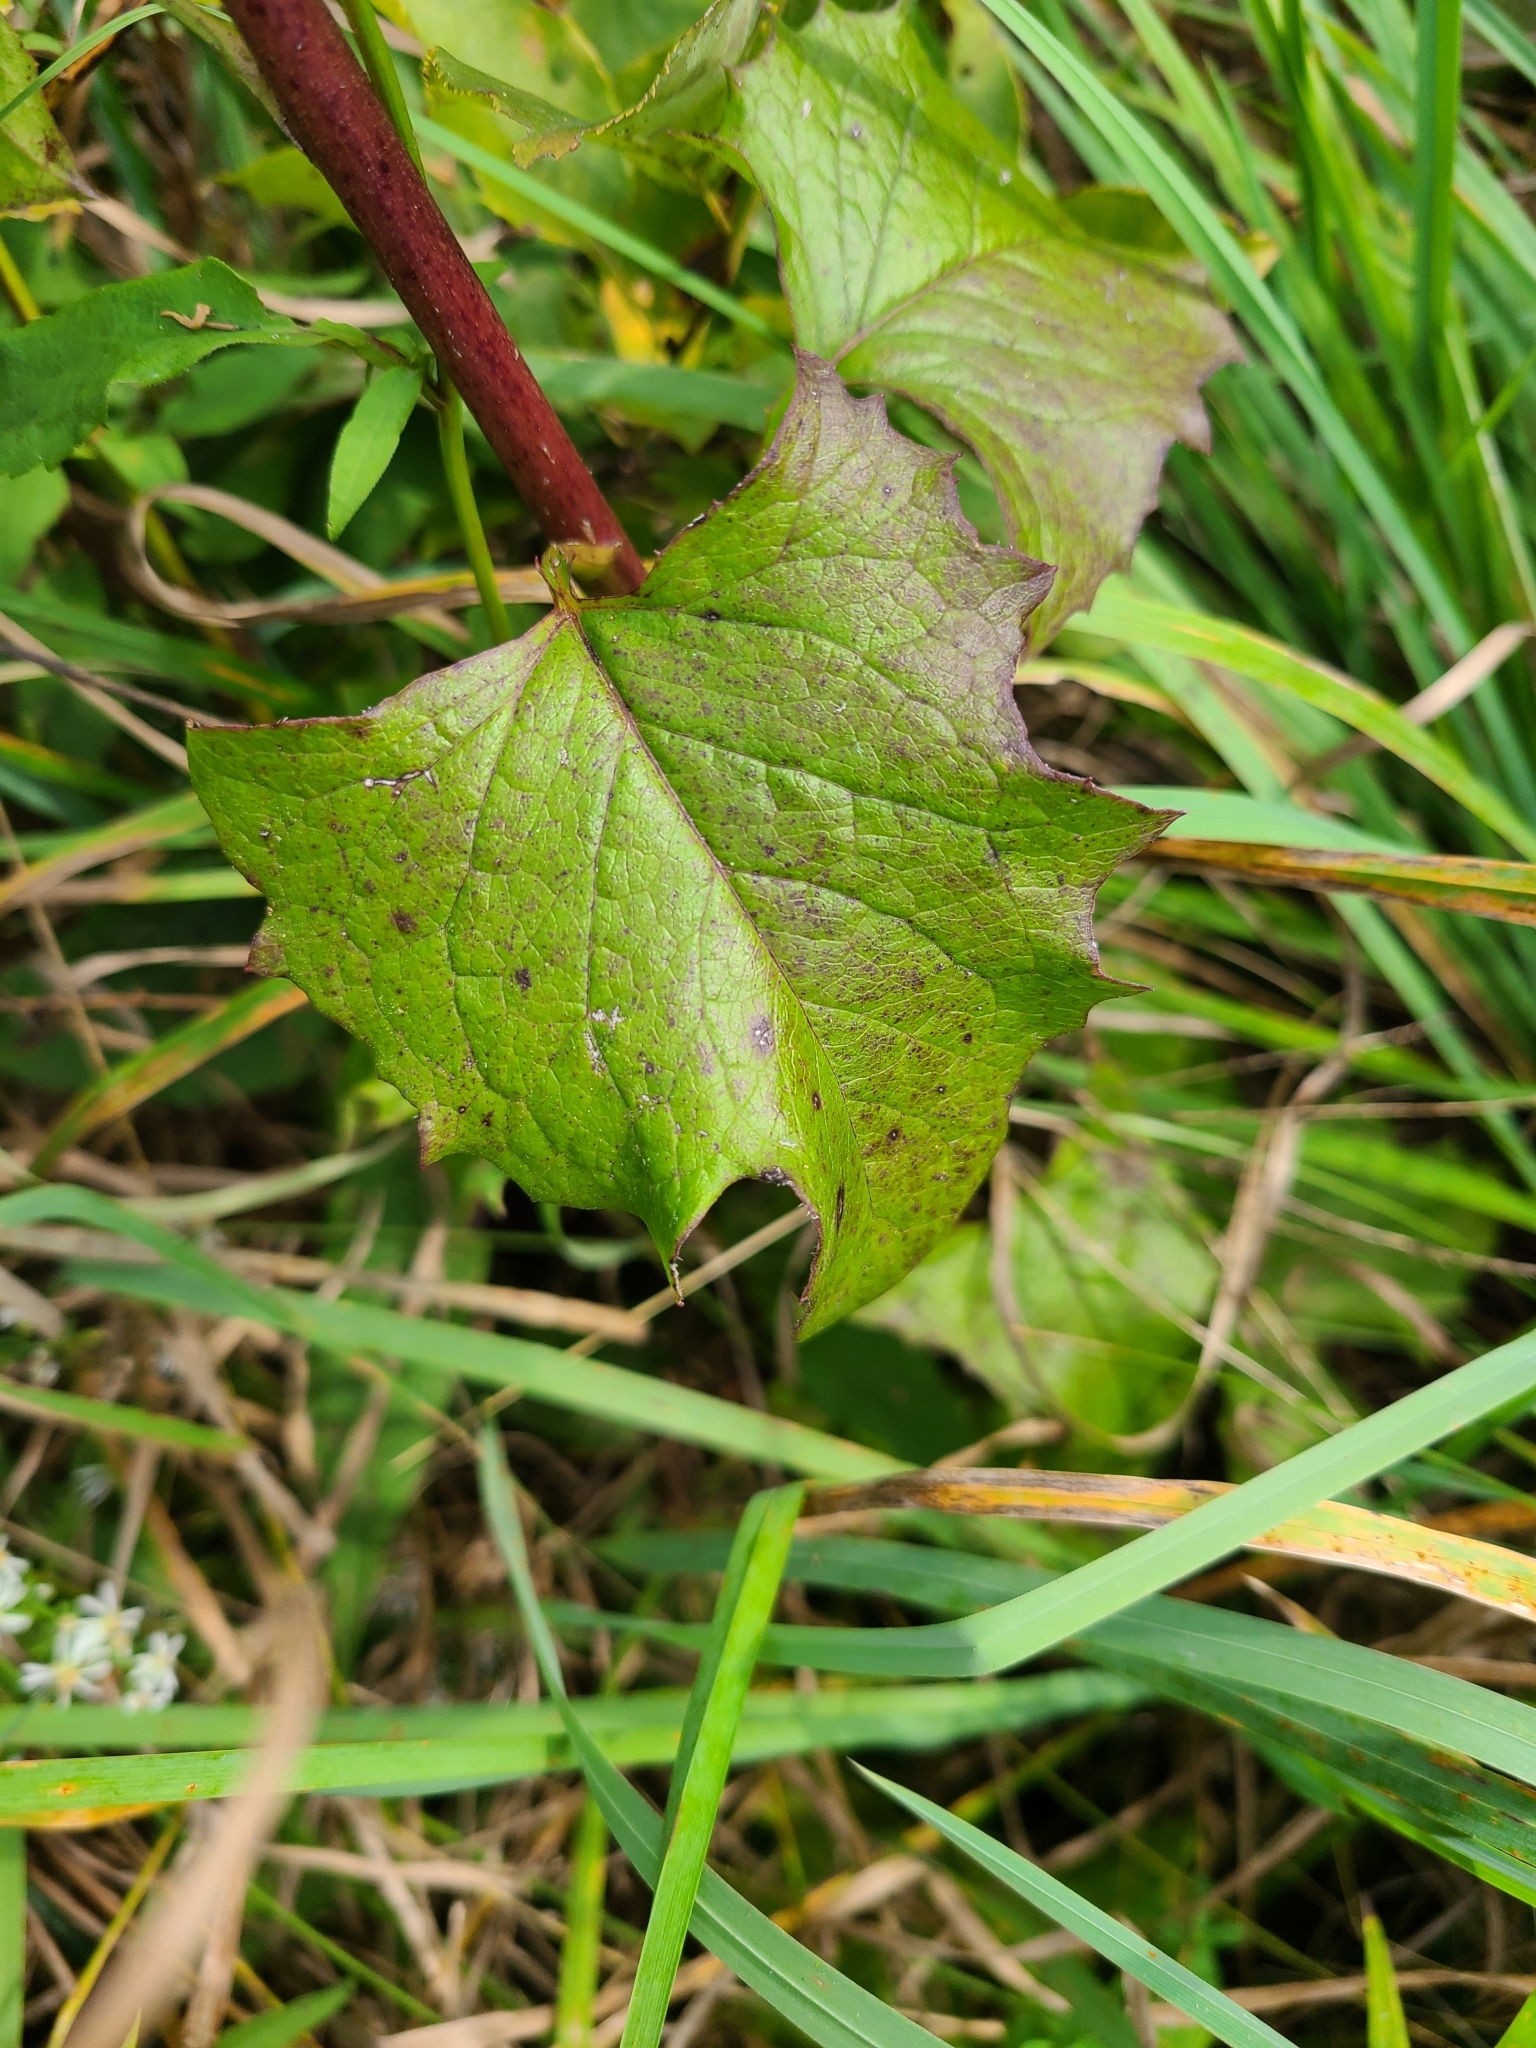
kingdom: Plantae
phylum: Tracheophyta
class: Magnoliopsida
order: Asterales
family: Asteraceae
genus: Nabalus
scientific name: Nabalus albus
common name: White rattlesnakeroot
